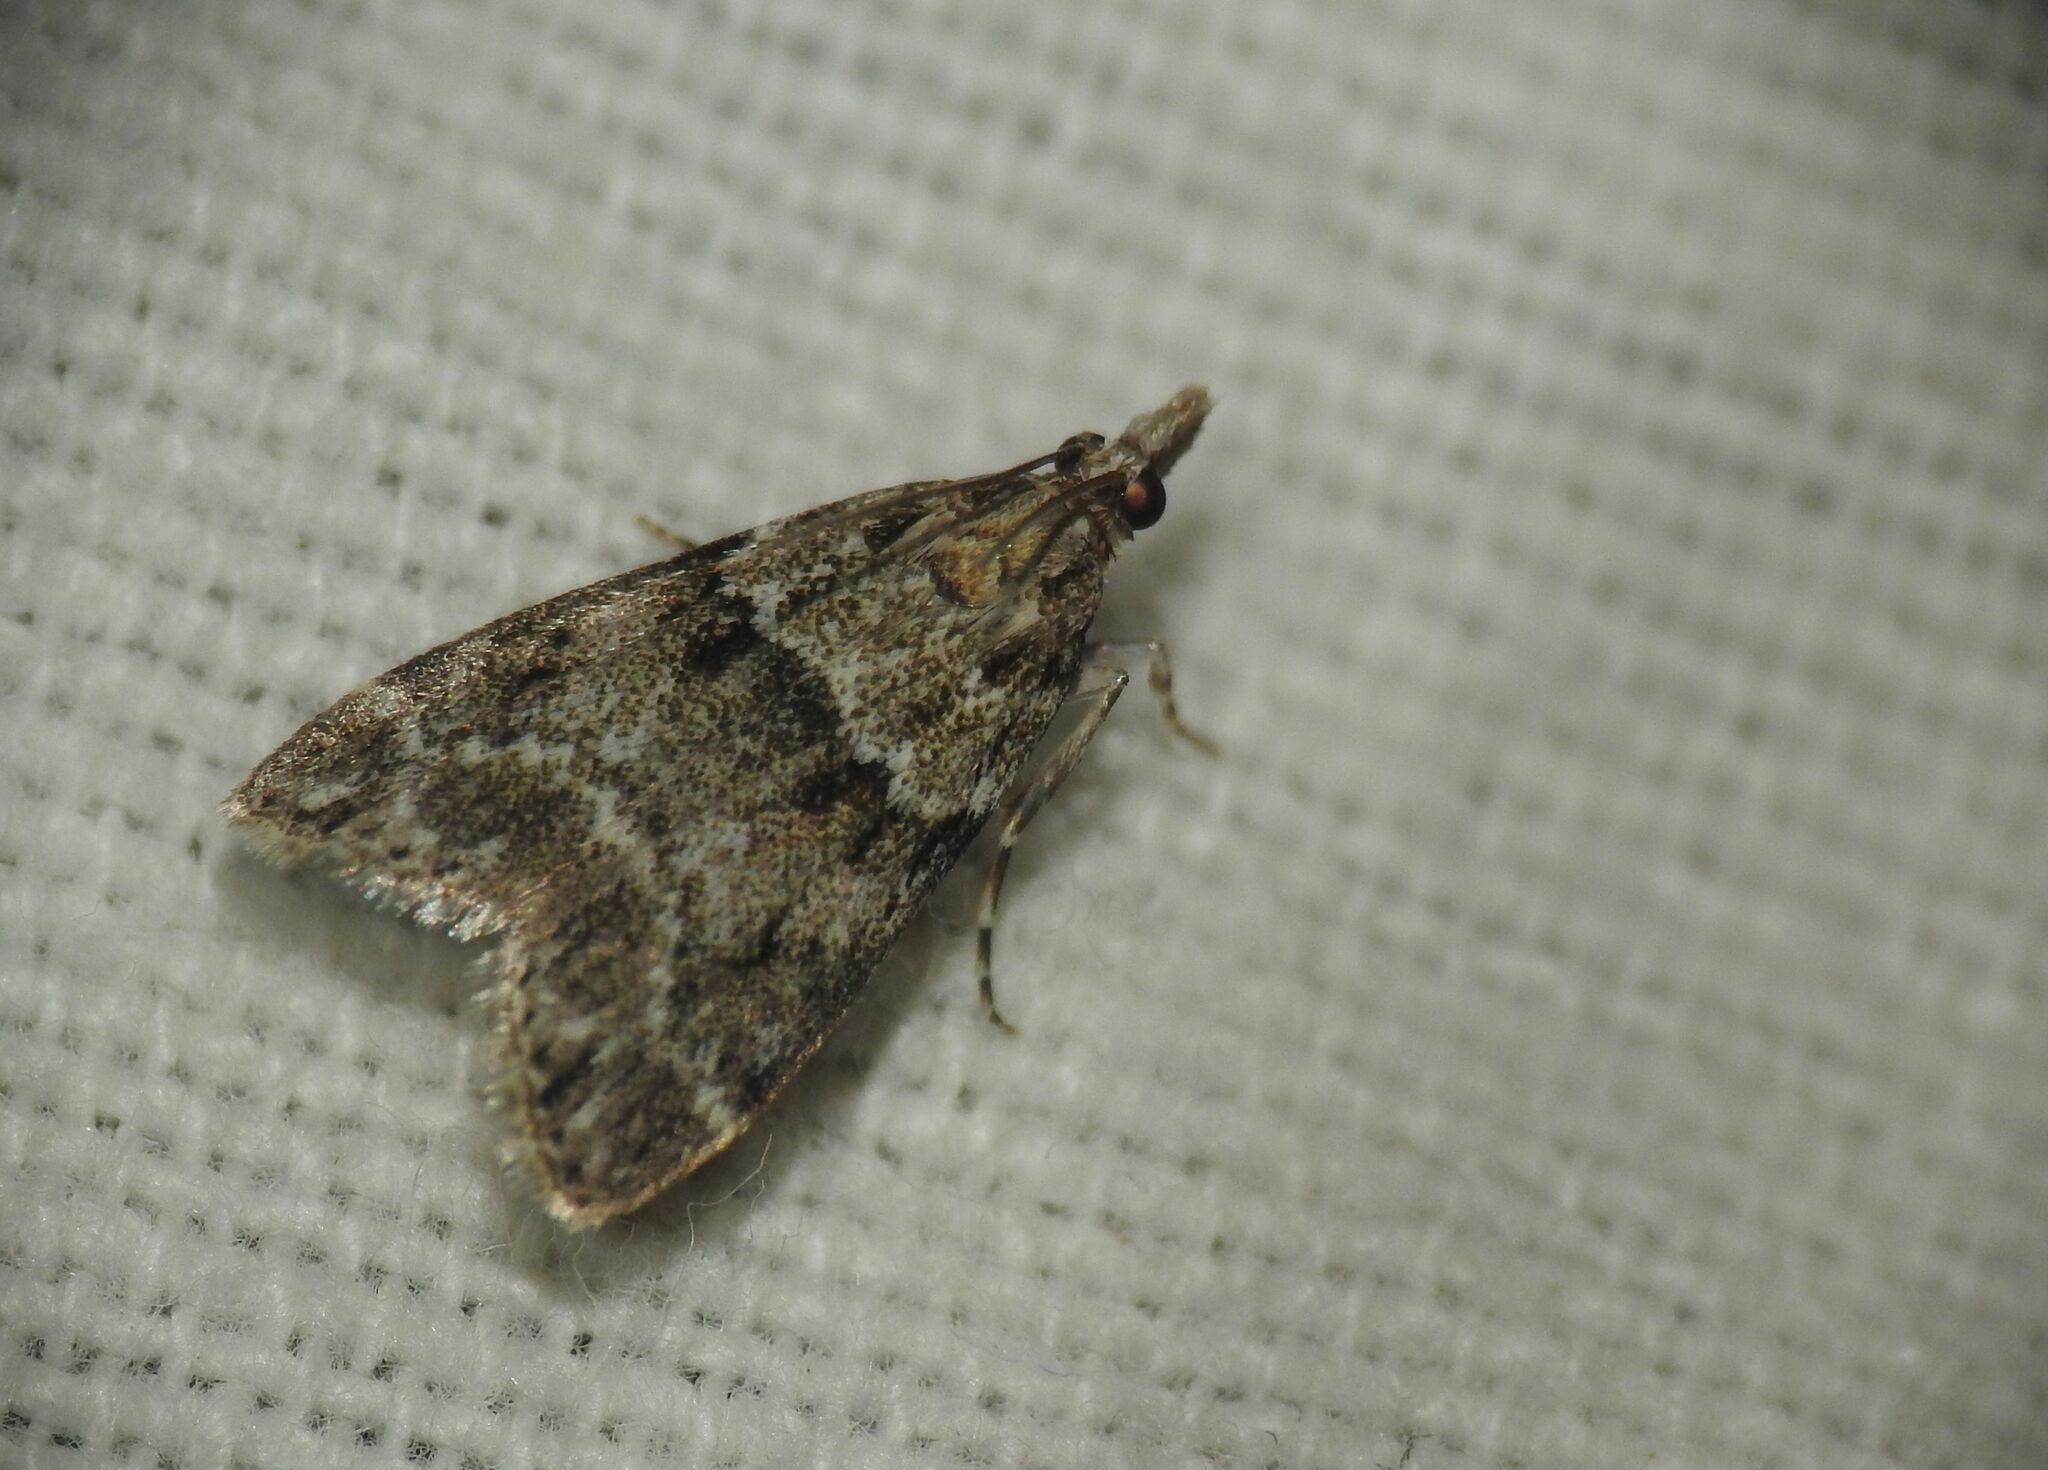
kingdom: Animalia
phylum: Arthropoda
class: Insecta
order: Lepidoptera
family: Crambidae
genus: Eudonia
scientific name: Eudonia mercurella
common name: Small grey
